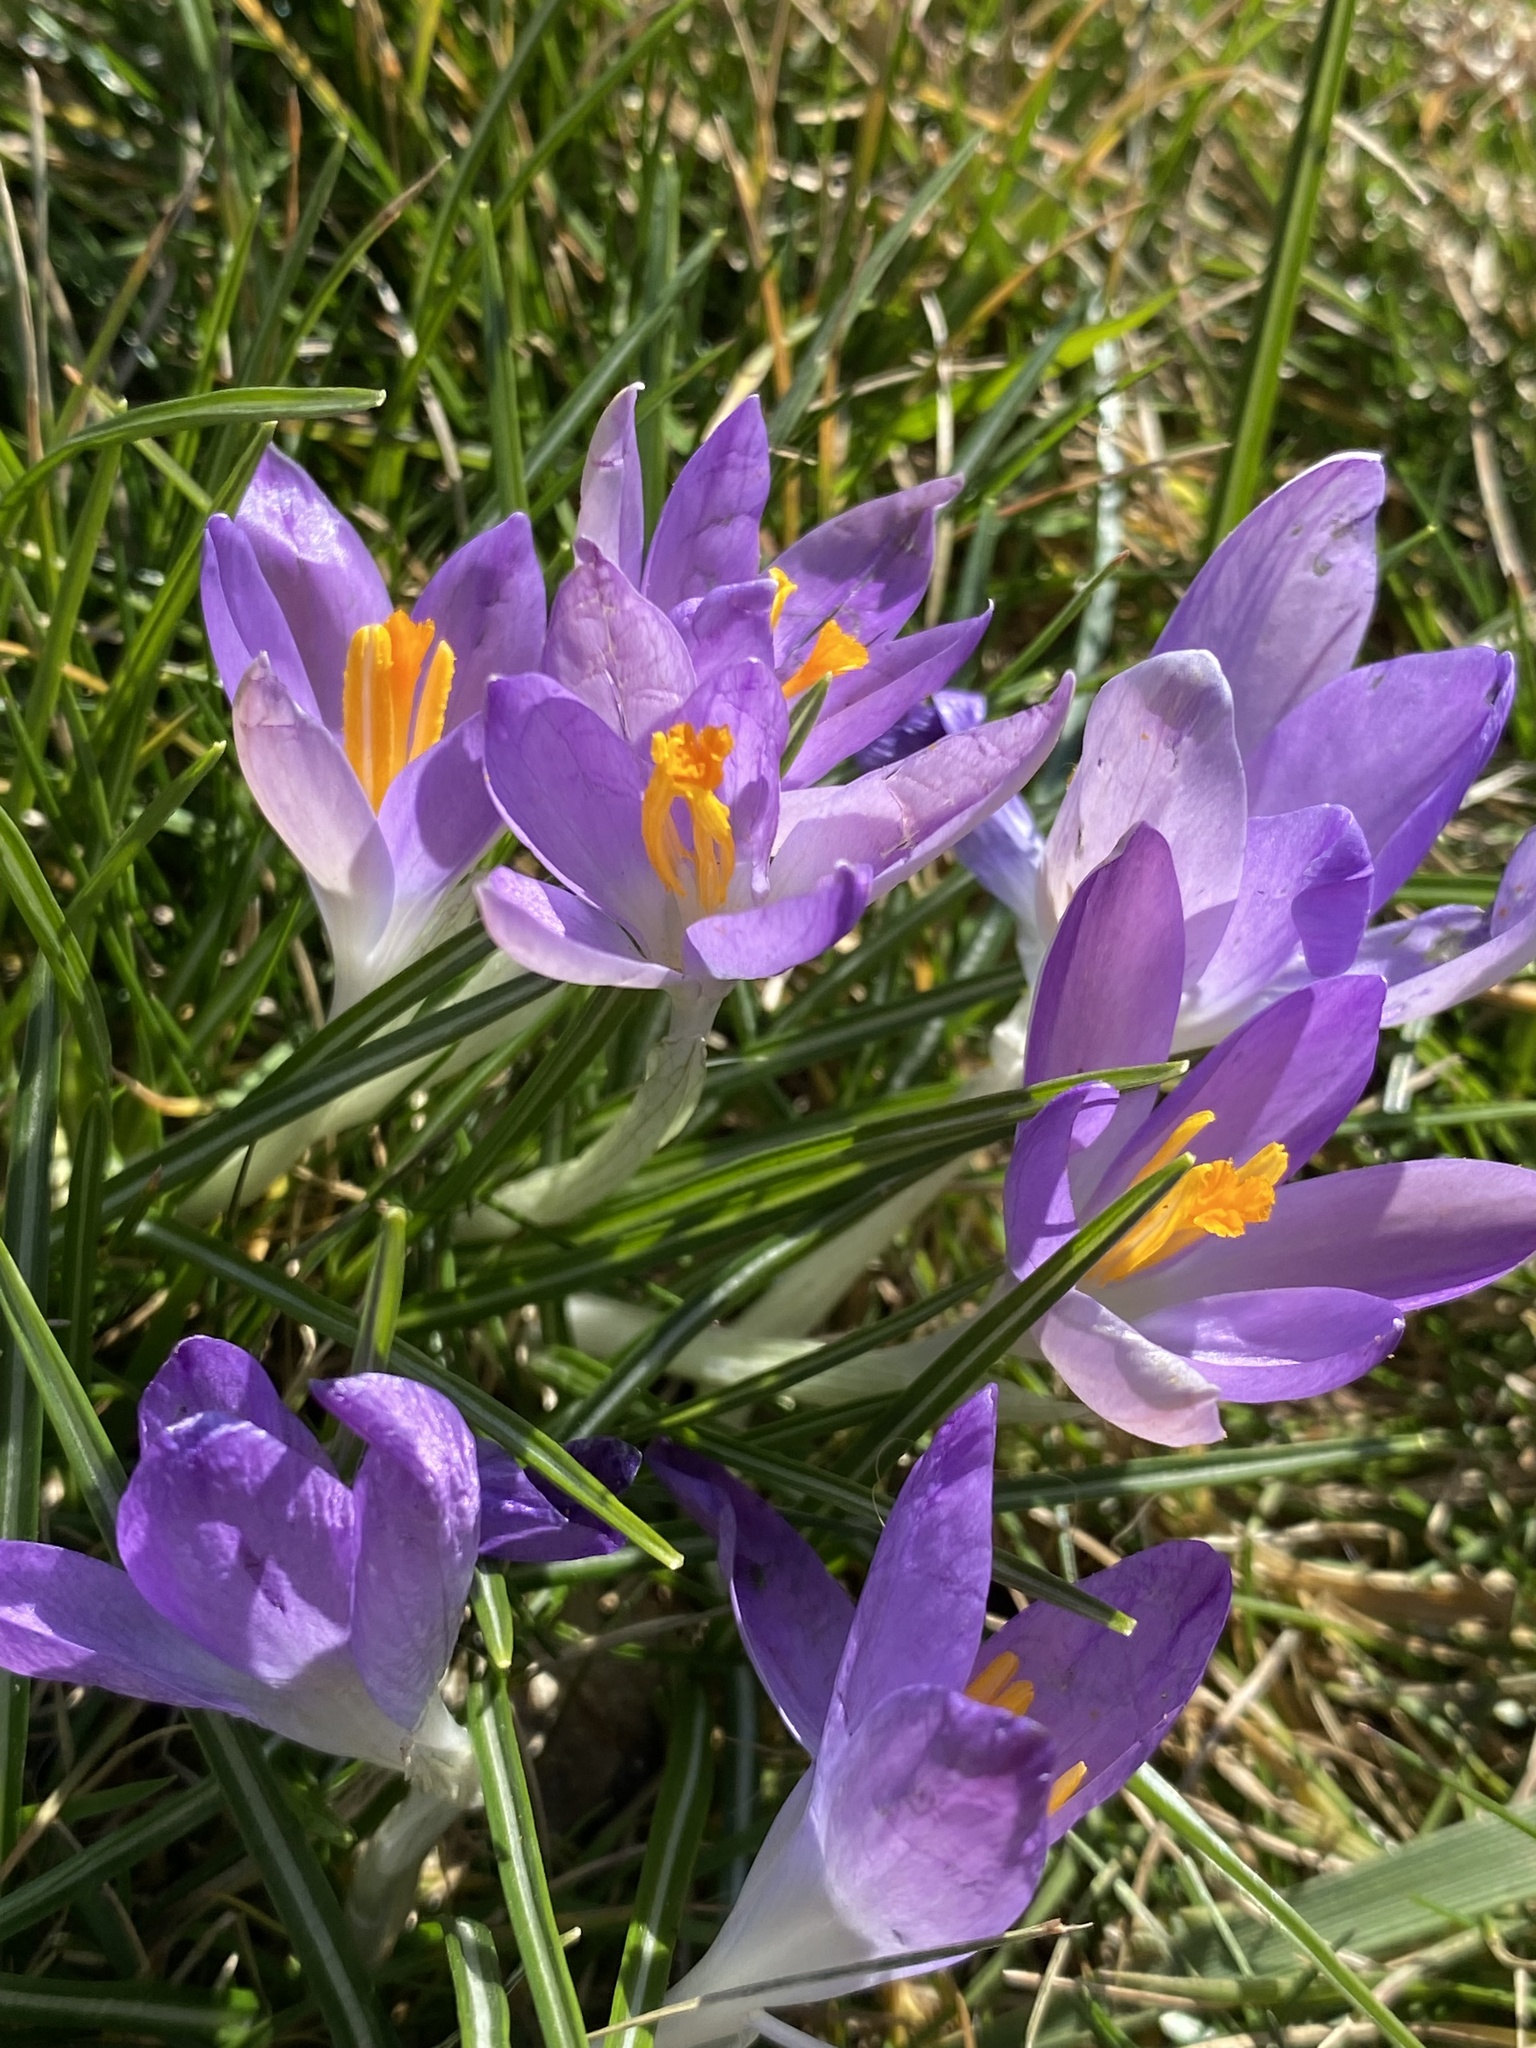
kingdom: Plantae
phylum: Tracheophyta
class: Liliopsida
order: Asparagales
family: Iridaceae
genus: Crocus
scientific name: Crocus tommasinianus
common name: Early crocus
